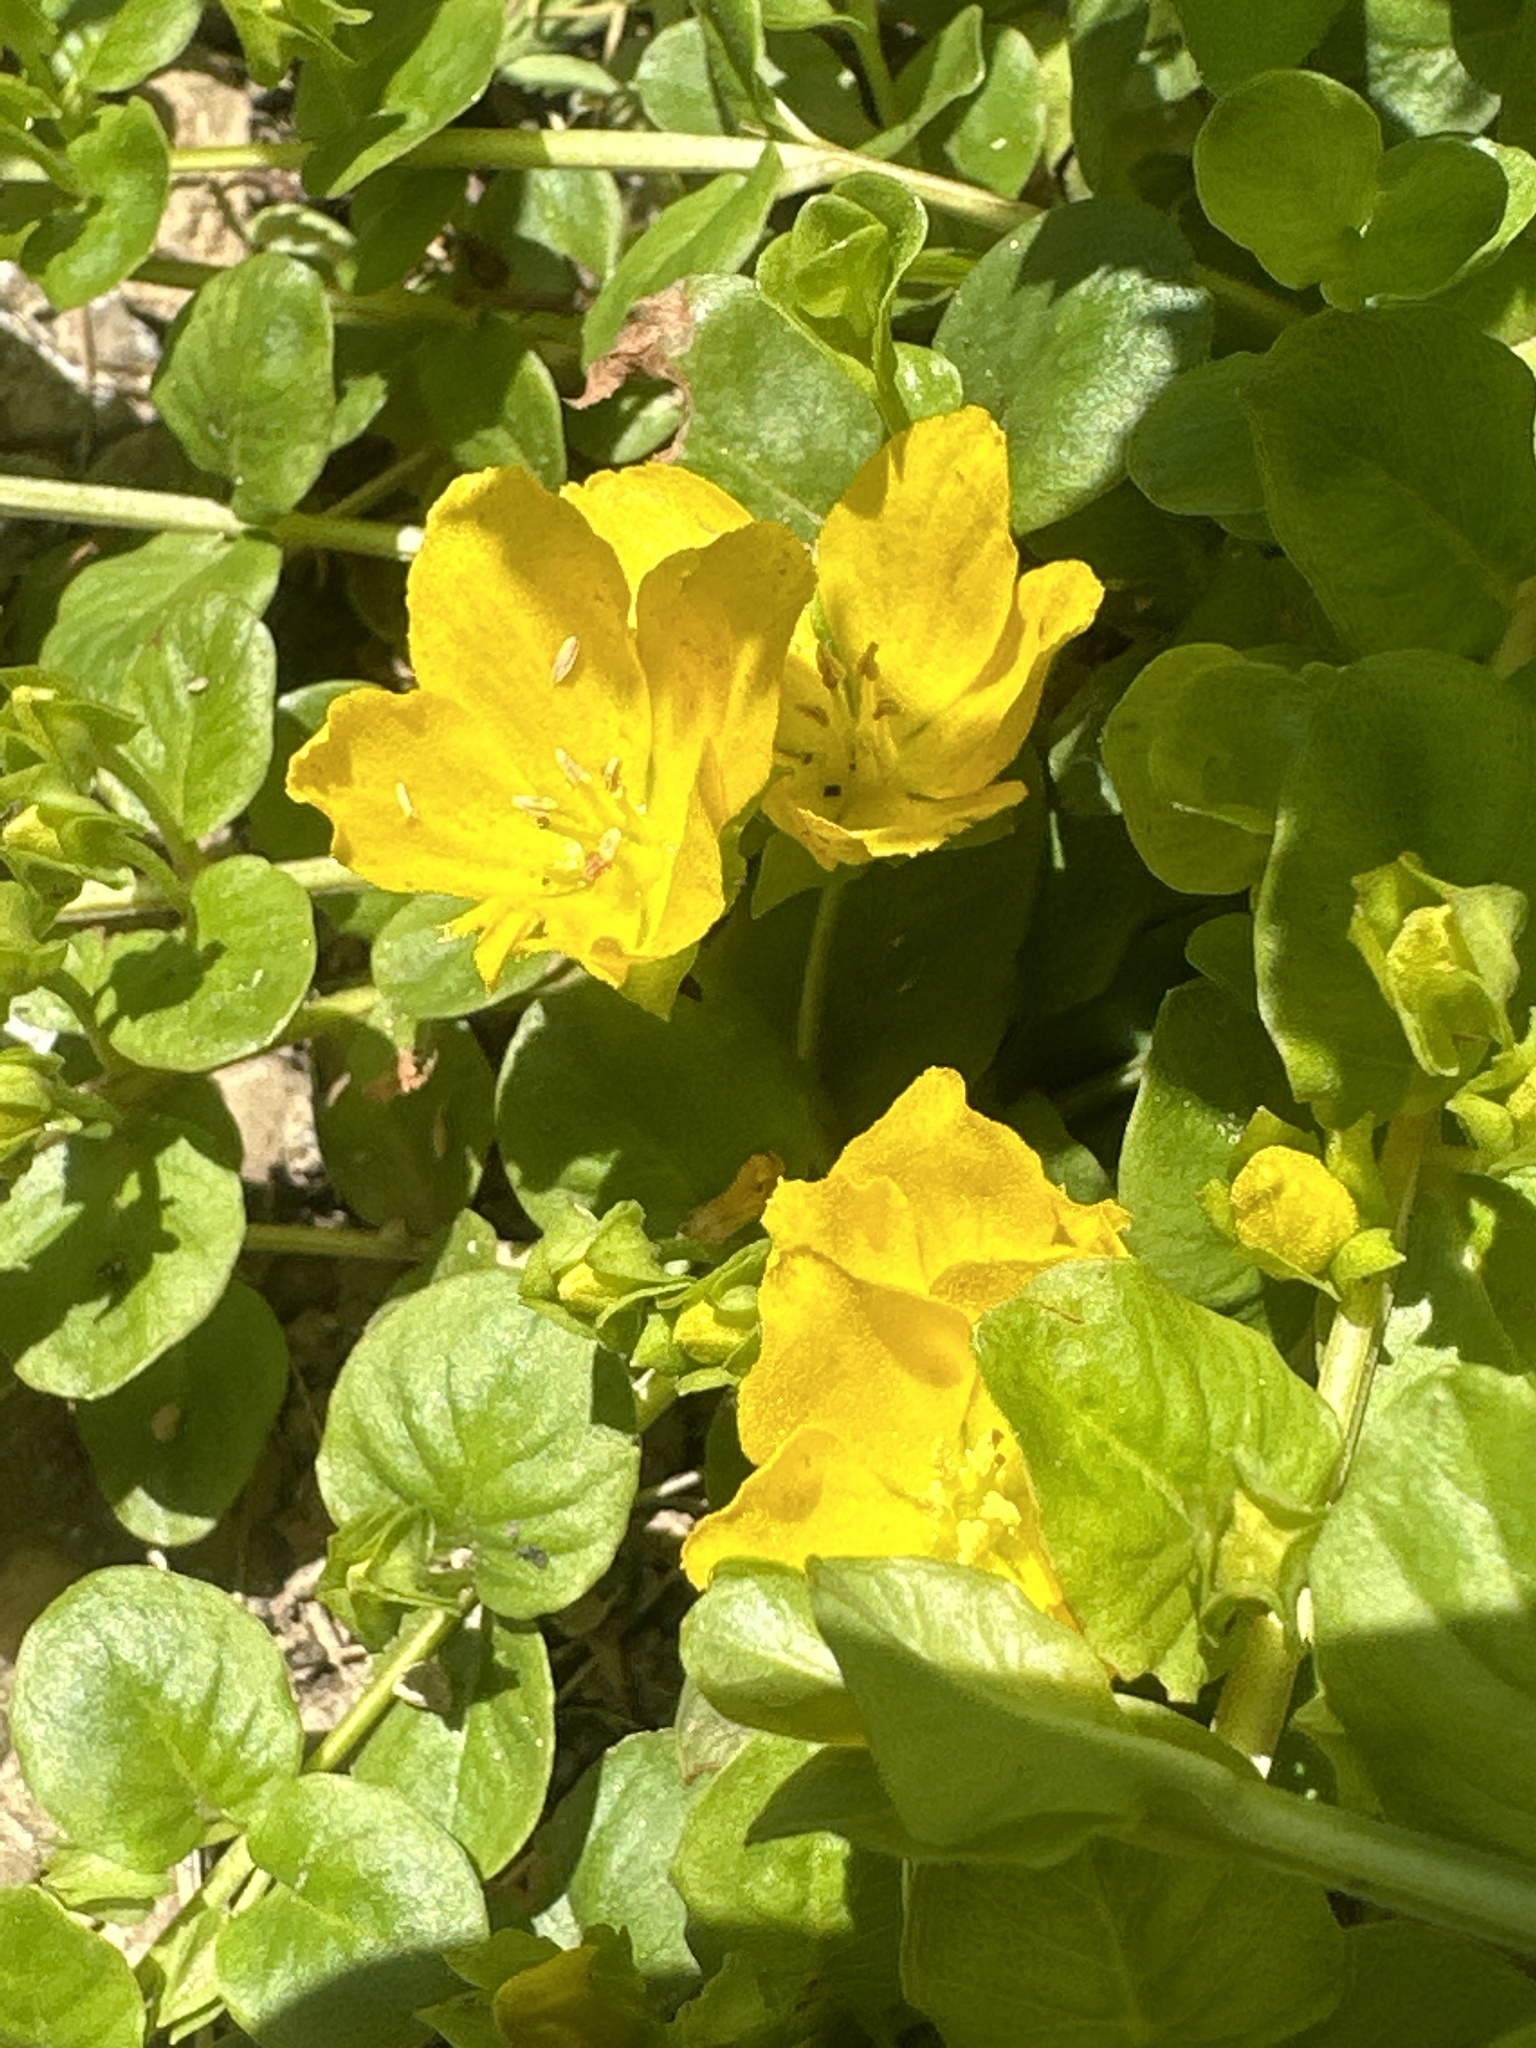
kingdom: Plantae
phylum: Tracheophyta
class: Magnoliopsida
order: Ericales
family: Primulaceae
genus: Lysimachia
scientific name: Lysimachia nummularia
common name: Moneywort
